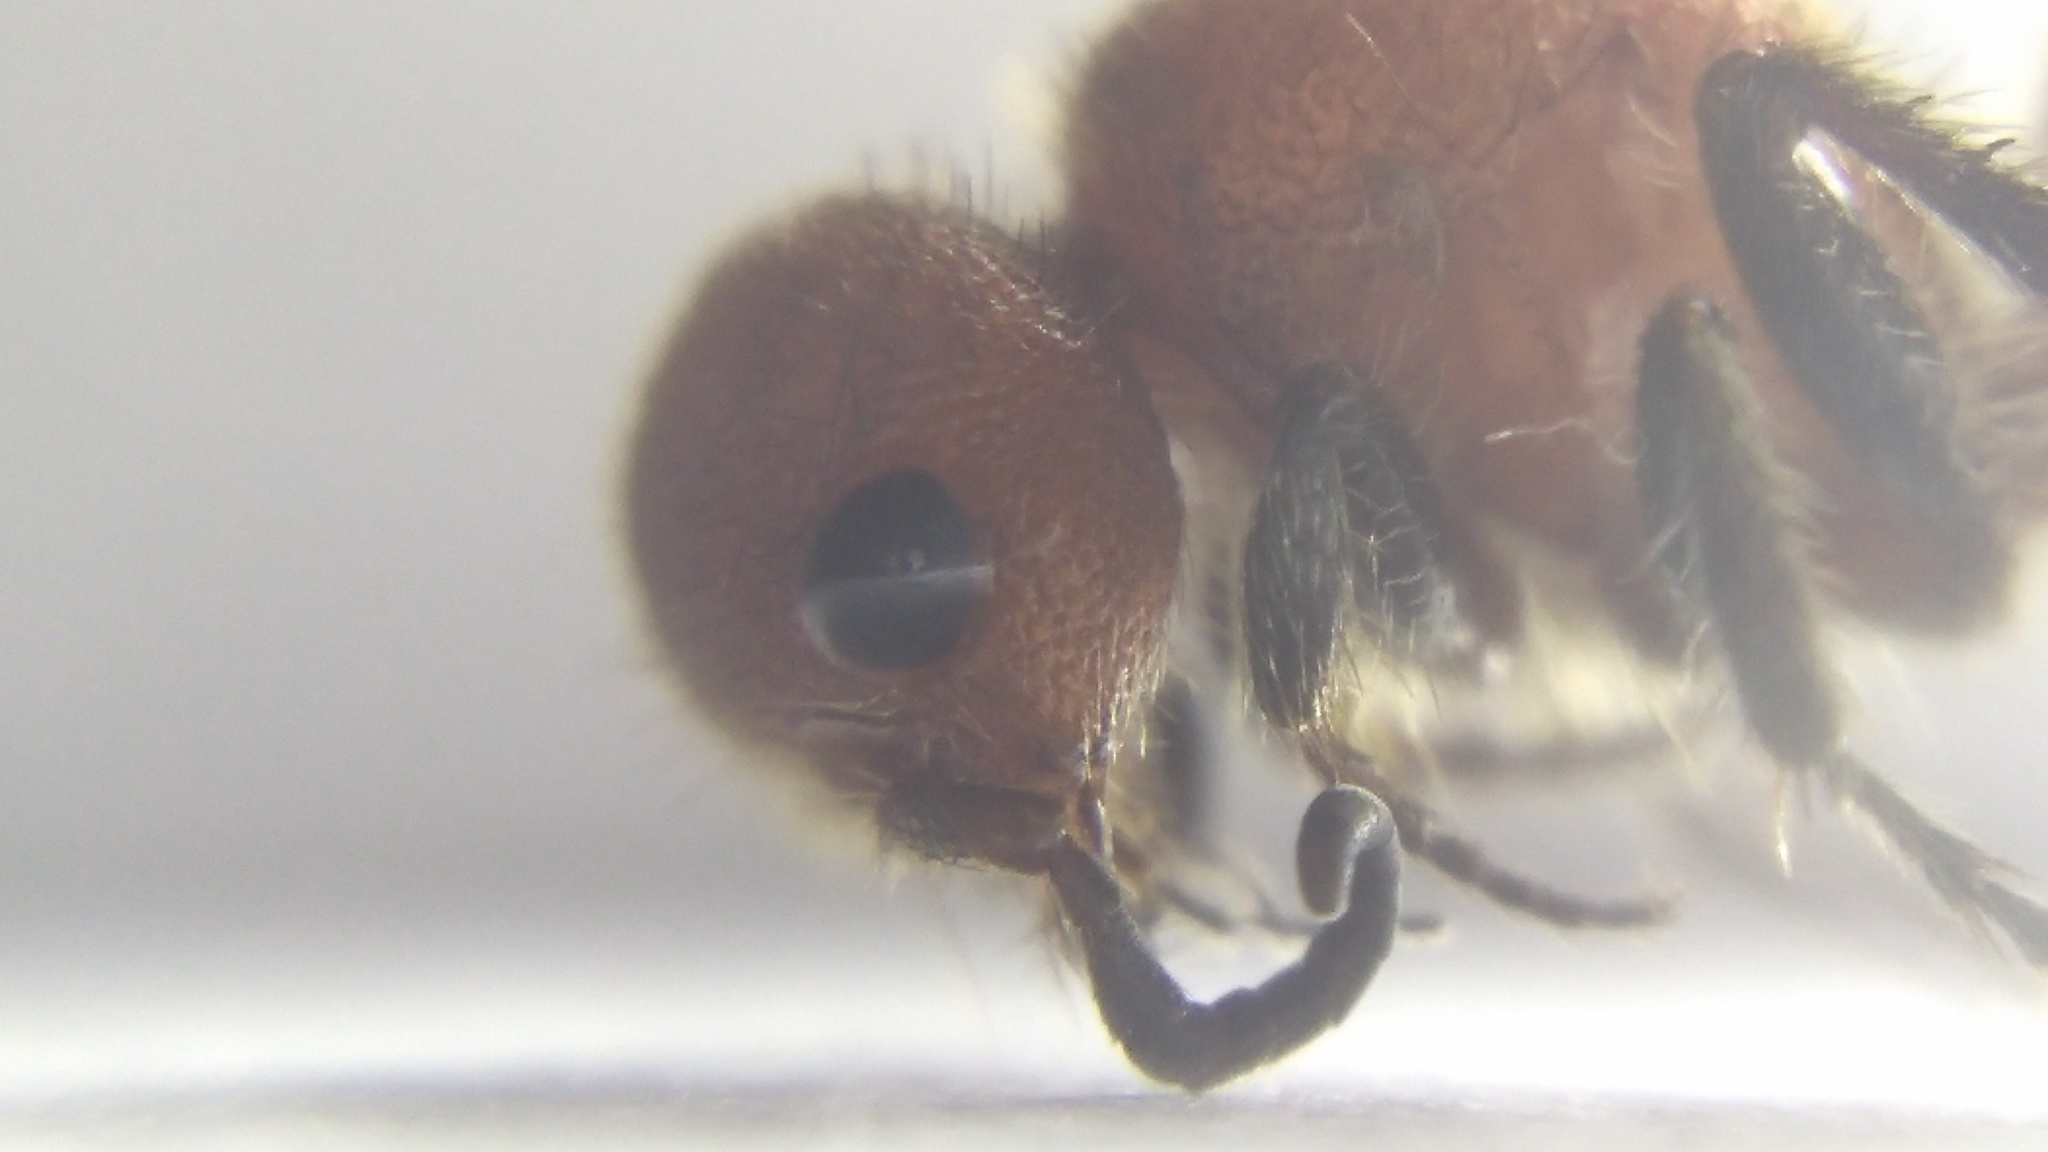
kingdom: Animalia
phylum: Arthropoda
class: Insecta
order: Hymenoptera
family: Mutillidae
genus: Pseudomethoca
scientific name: Pseudomethoca
